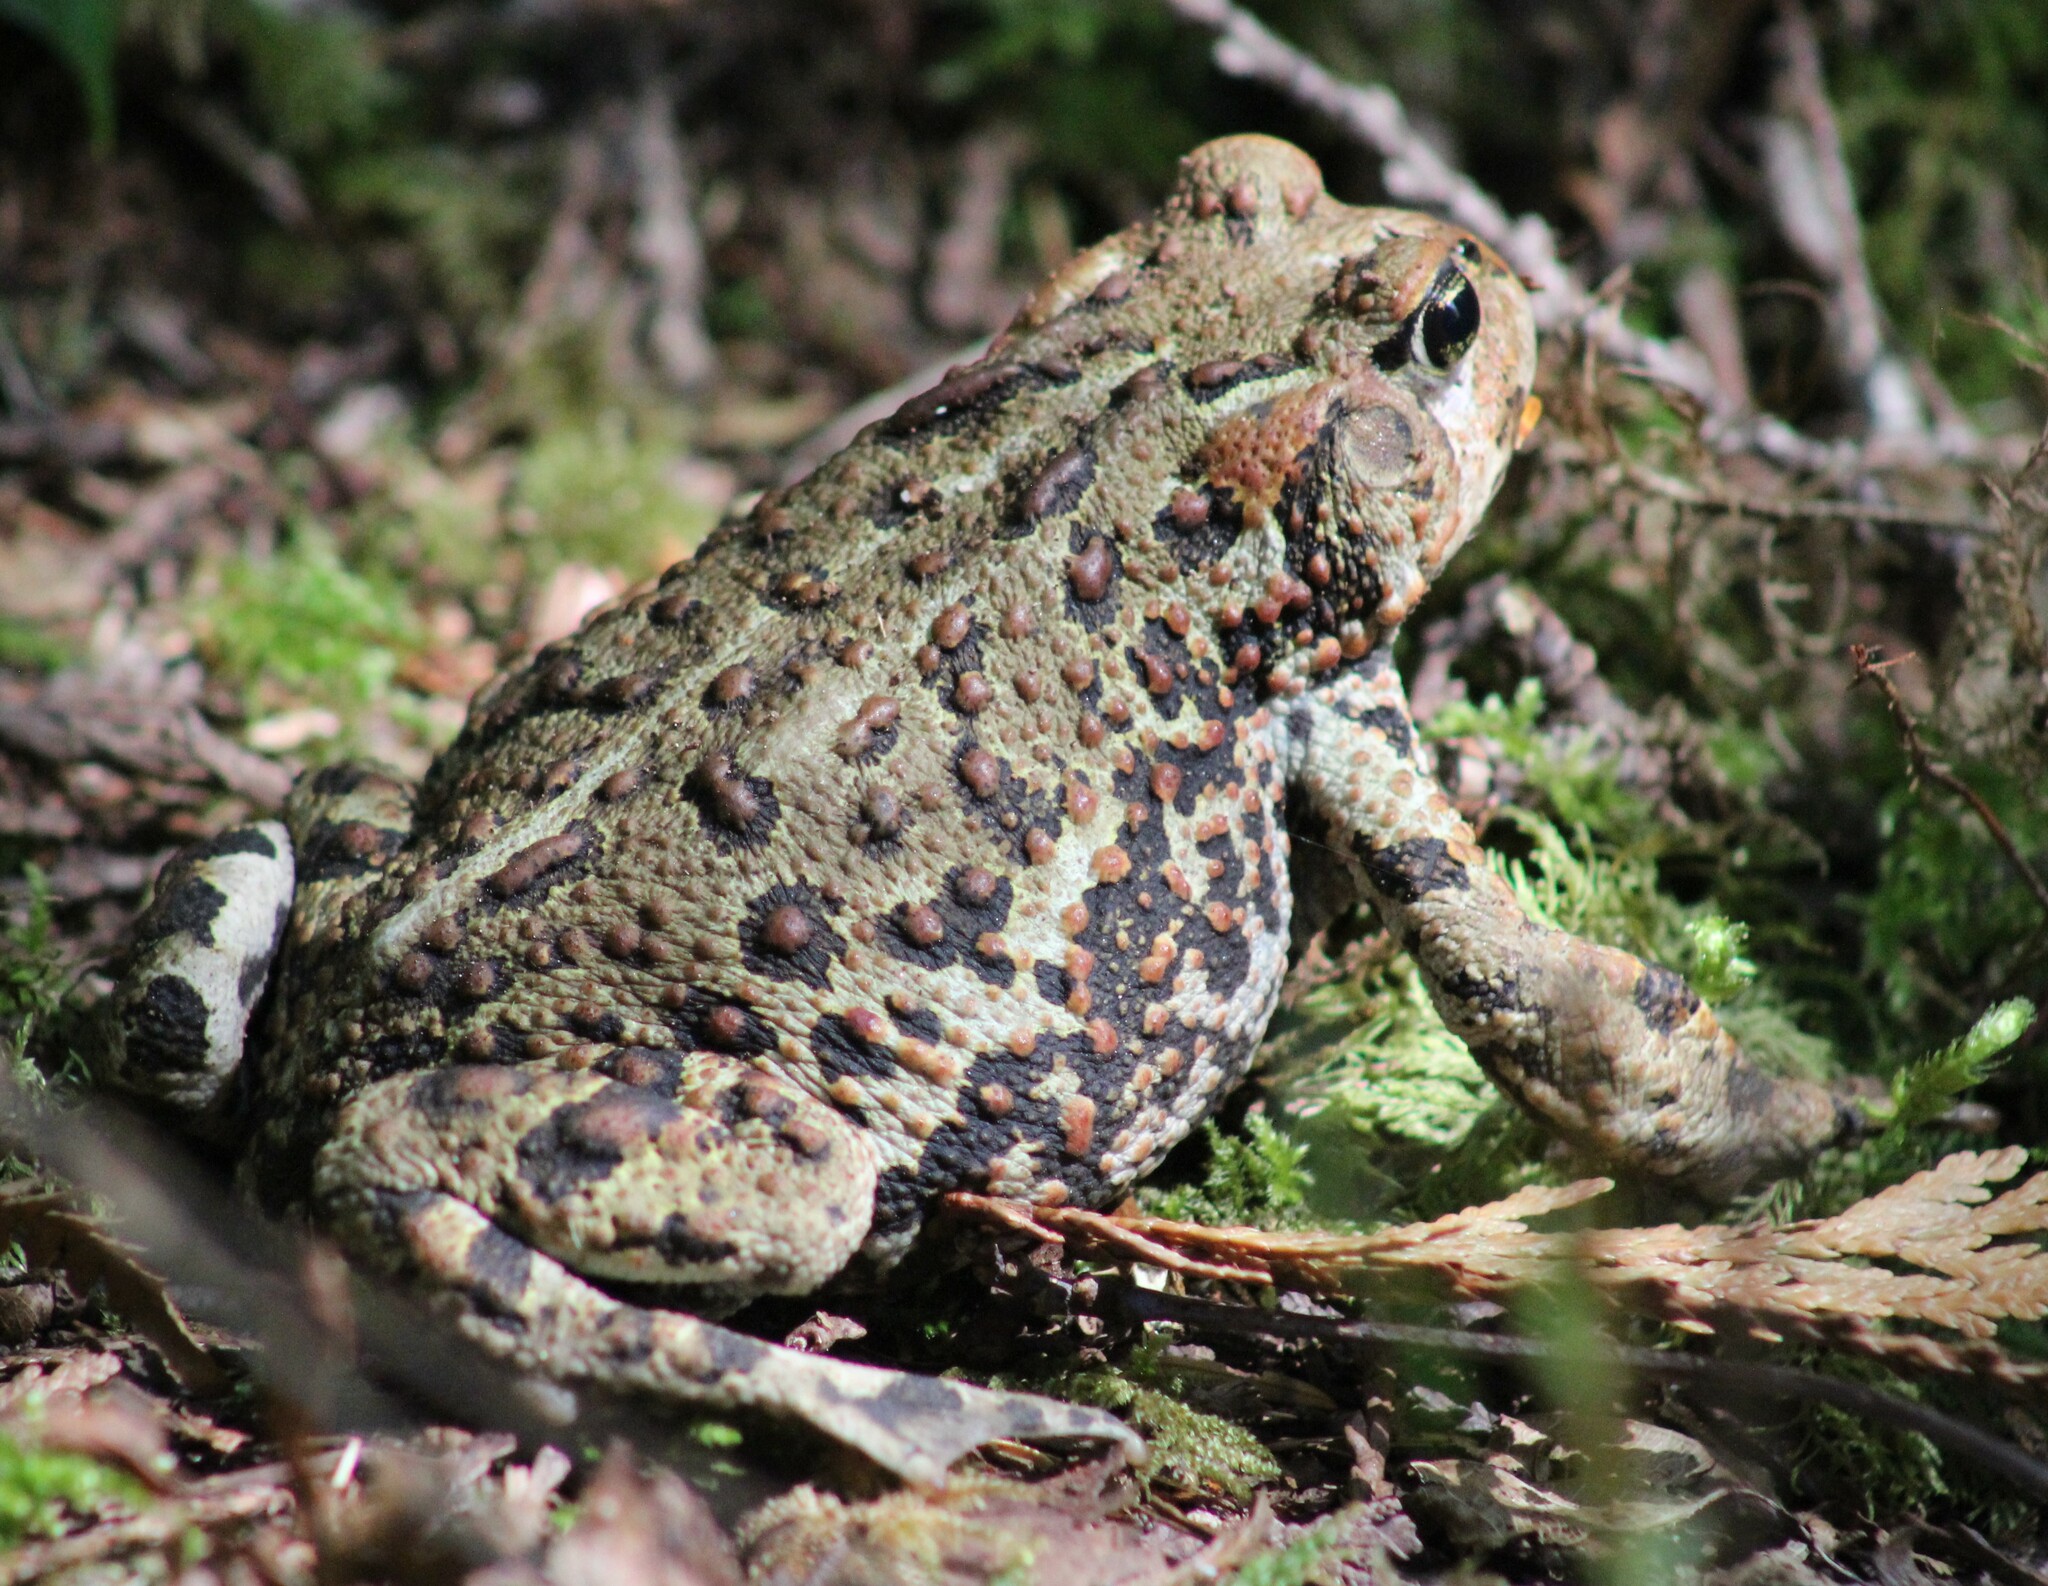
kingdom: Animalia
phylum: Chordata
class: Amphibia
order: Anura
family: Bufonidae
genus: Anaxyrus
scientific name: Anaxyrus boreas
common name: Western toad
